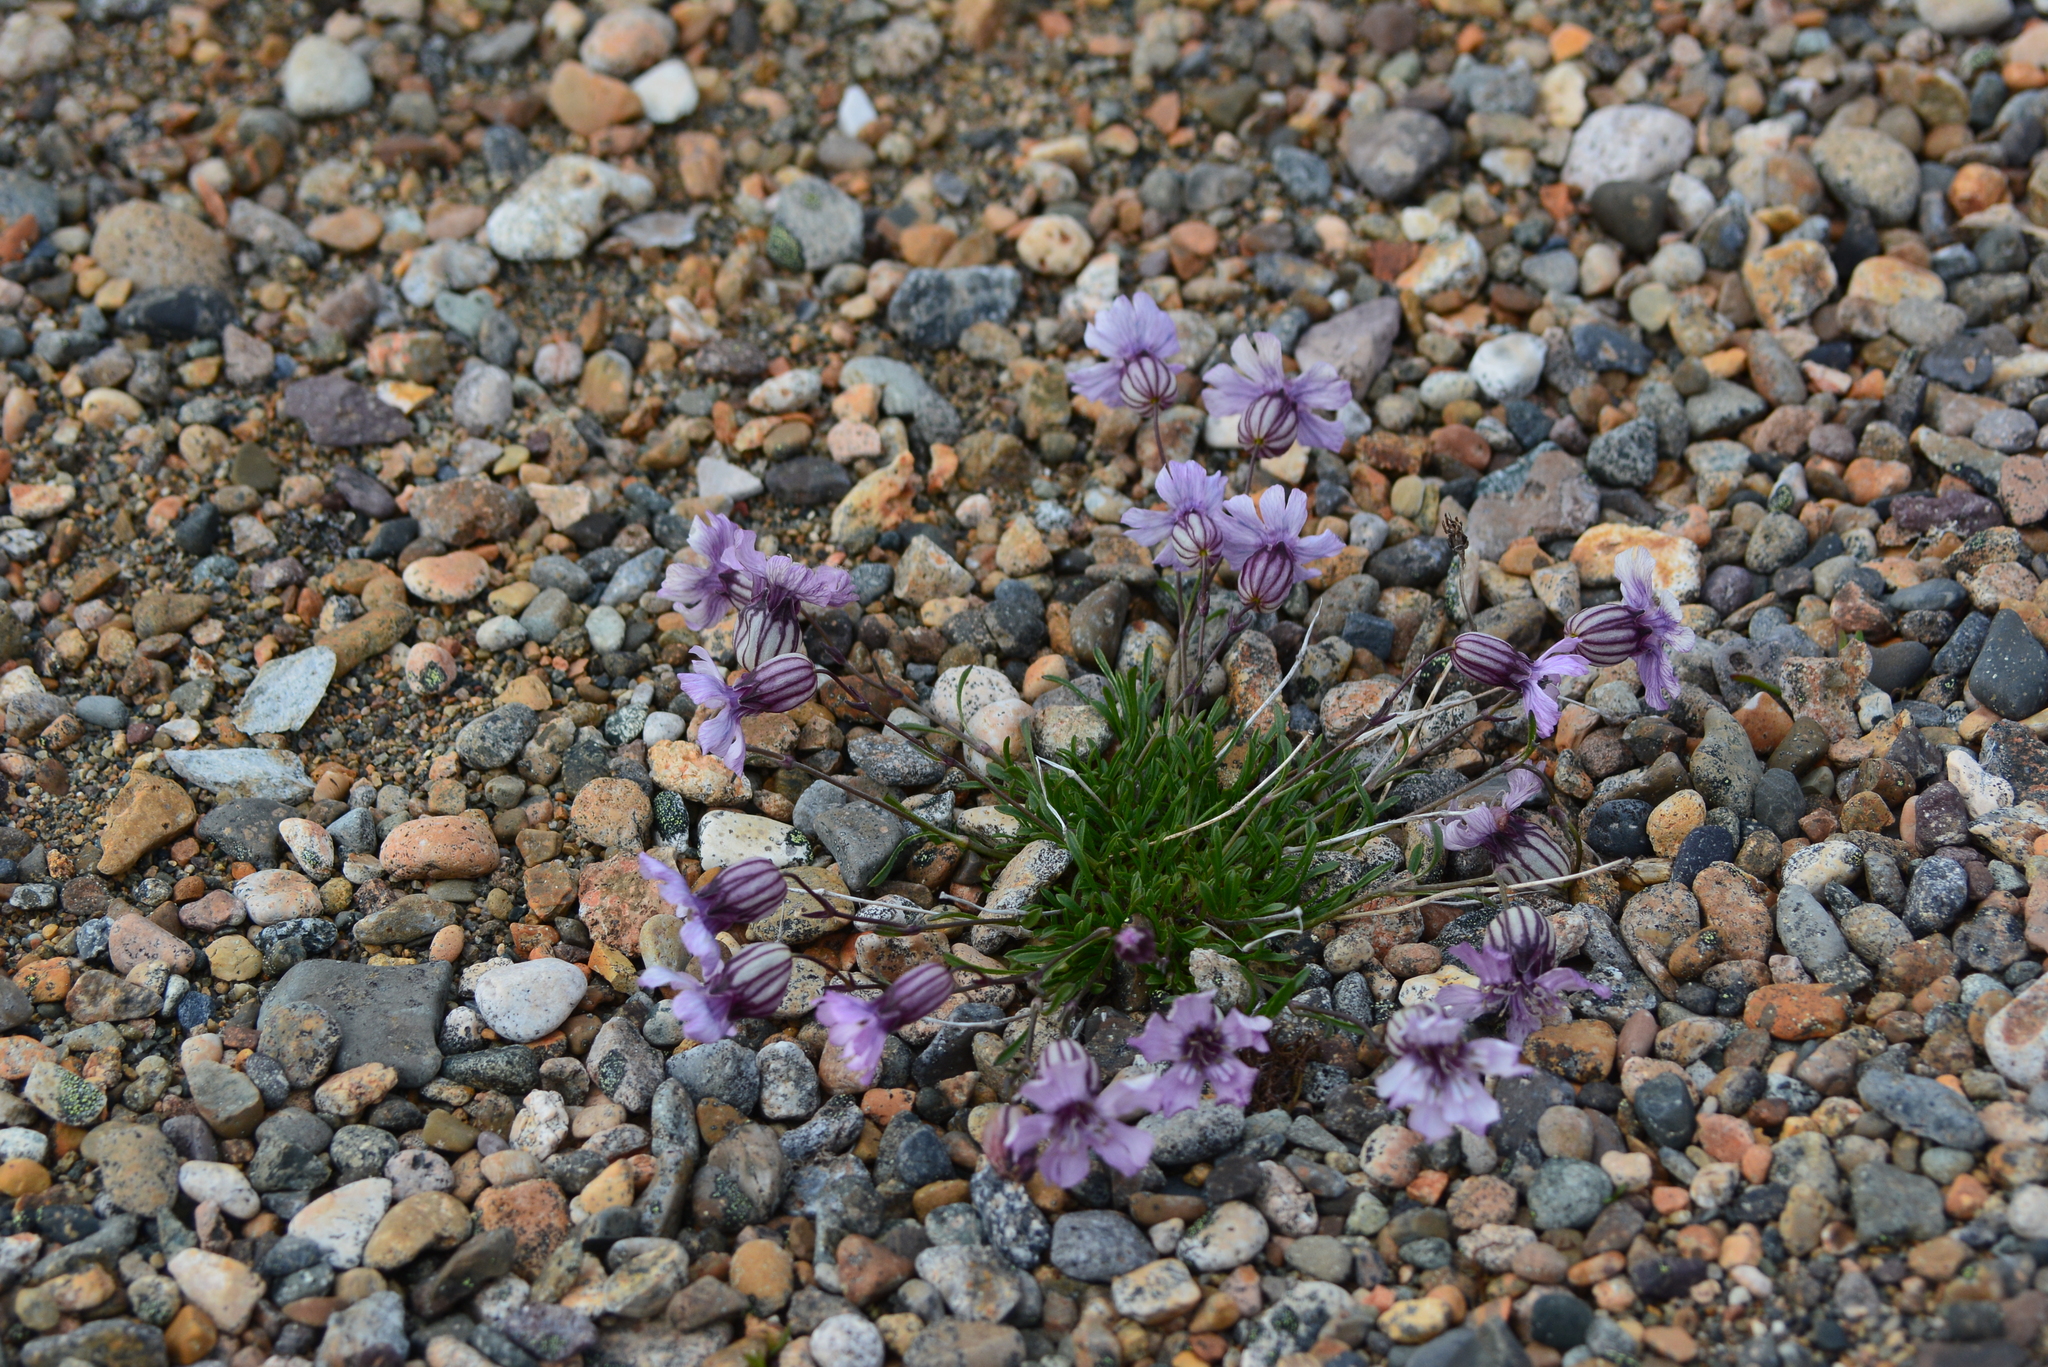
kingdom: Plantae
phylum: Tracheophyta
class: Magnoliopsida
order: Caryophyllales
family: Caryophyllaceae
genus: Silene
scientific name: Silene stenophylla
